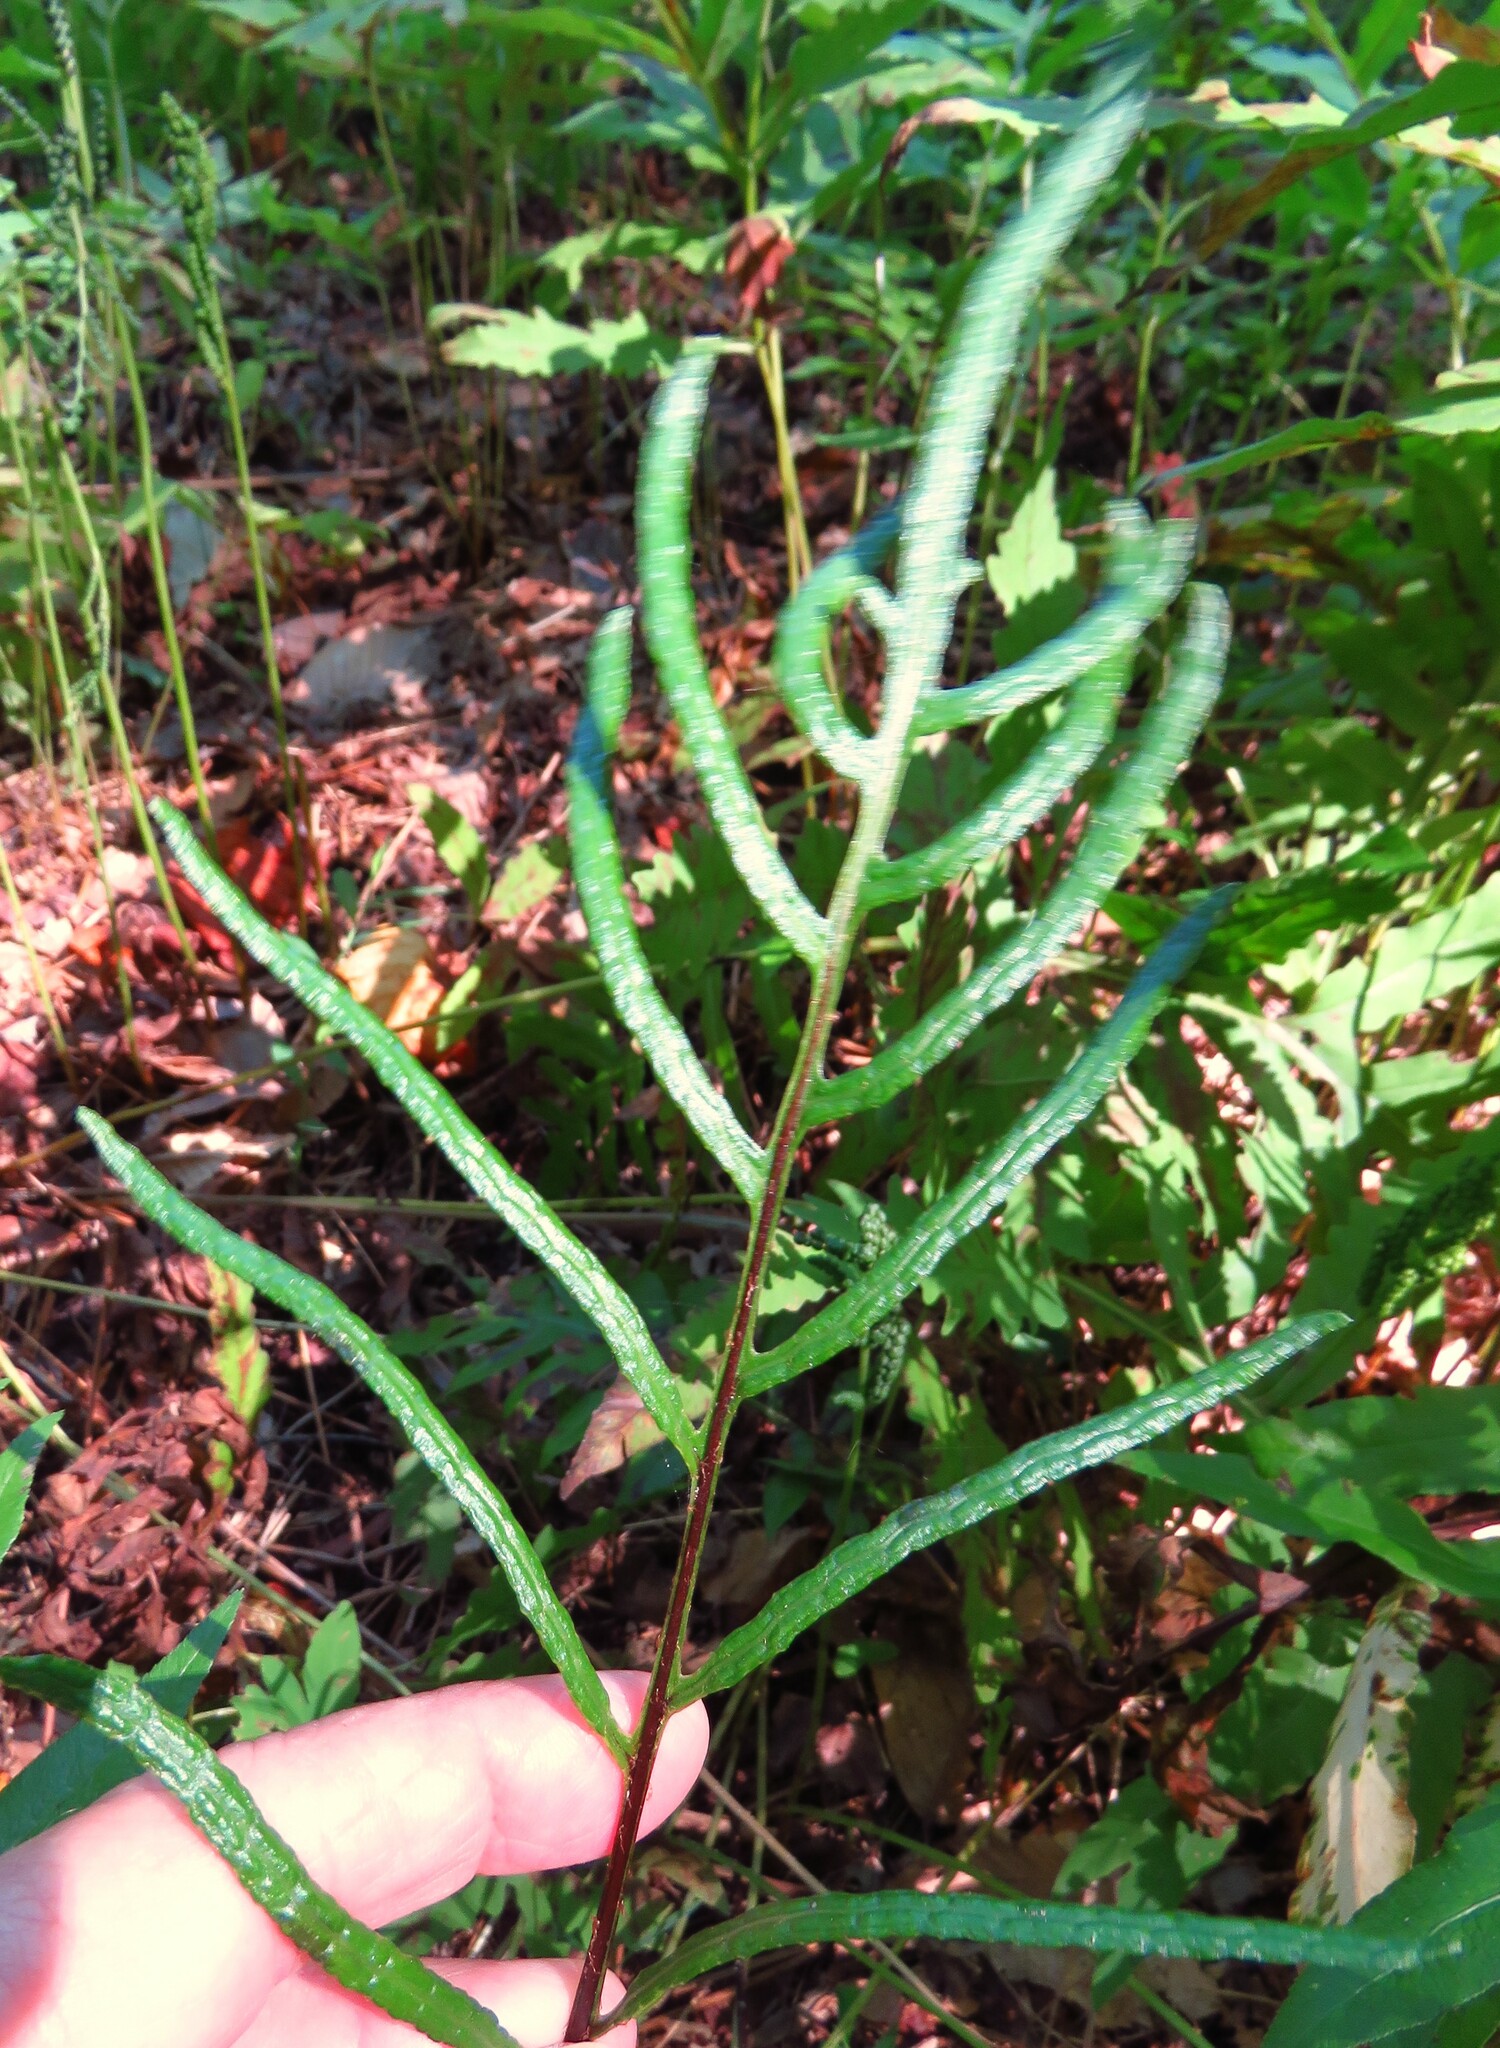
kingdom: Plantae
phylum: Tracheophyta
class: Polypodiopsida
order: Polypodiales
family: Blechnaceae
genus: Lorinseria
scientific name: Lorinseria areolata
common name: Dwarf chain fern
